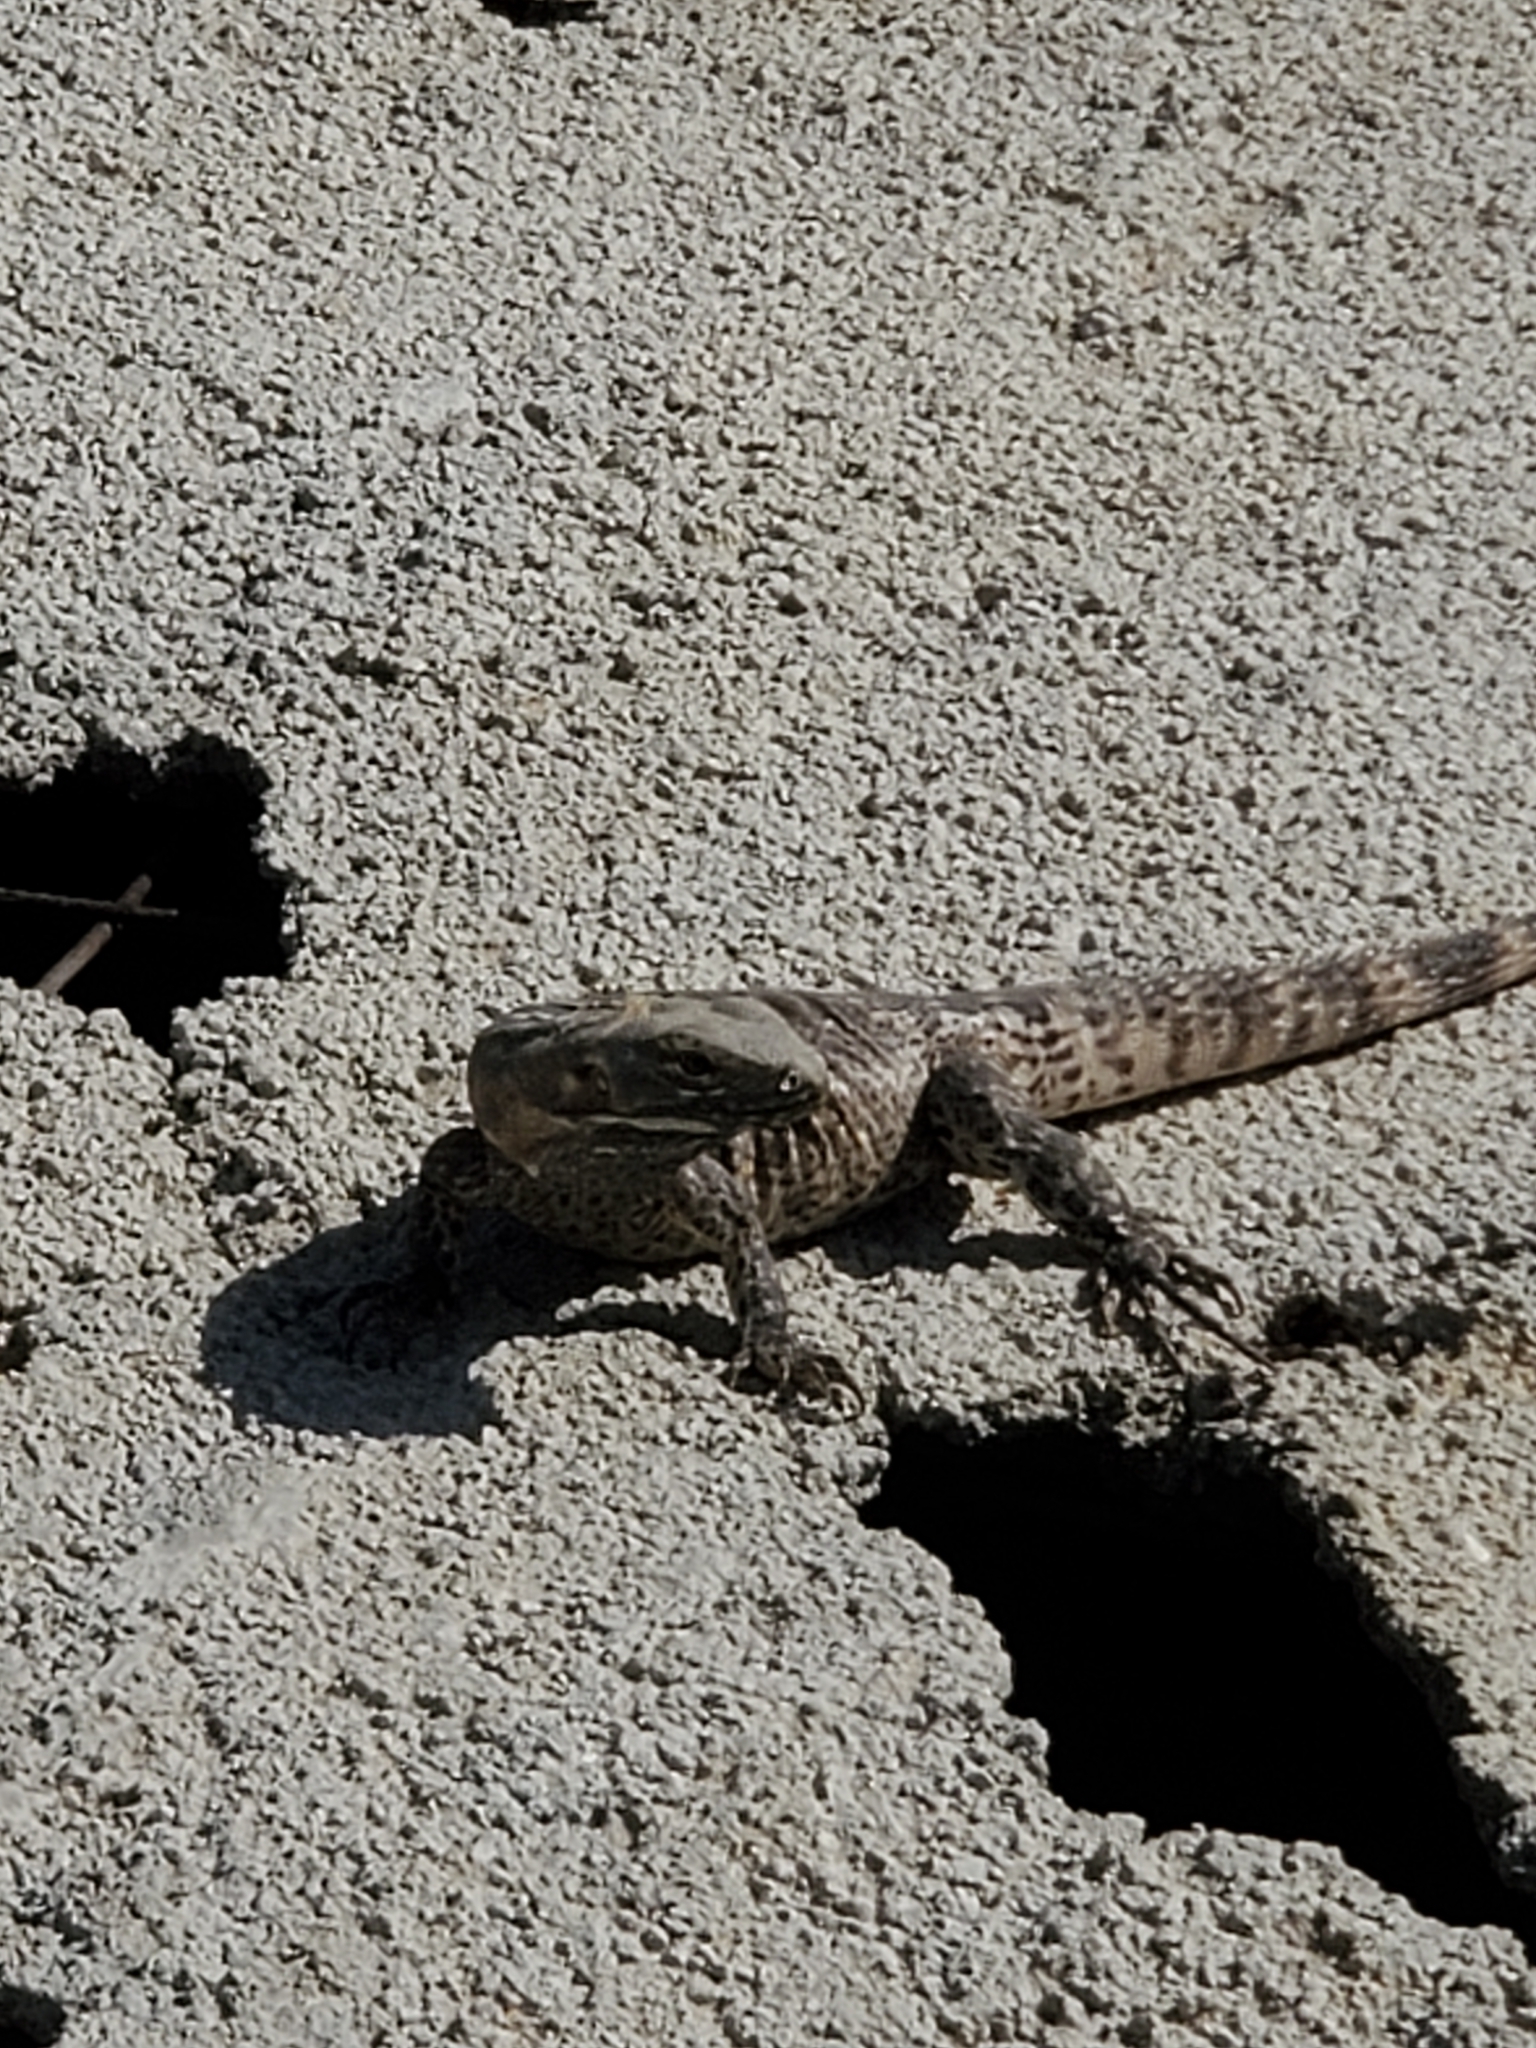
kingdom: Animalia
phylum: Chordata
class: Squamata
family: Iguanidae
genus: Ctenosaura
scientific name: Ctenosaura hemilopha
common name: Baja california spiny- tailed iguana
